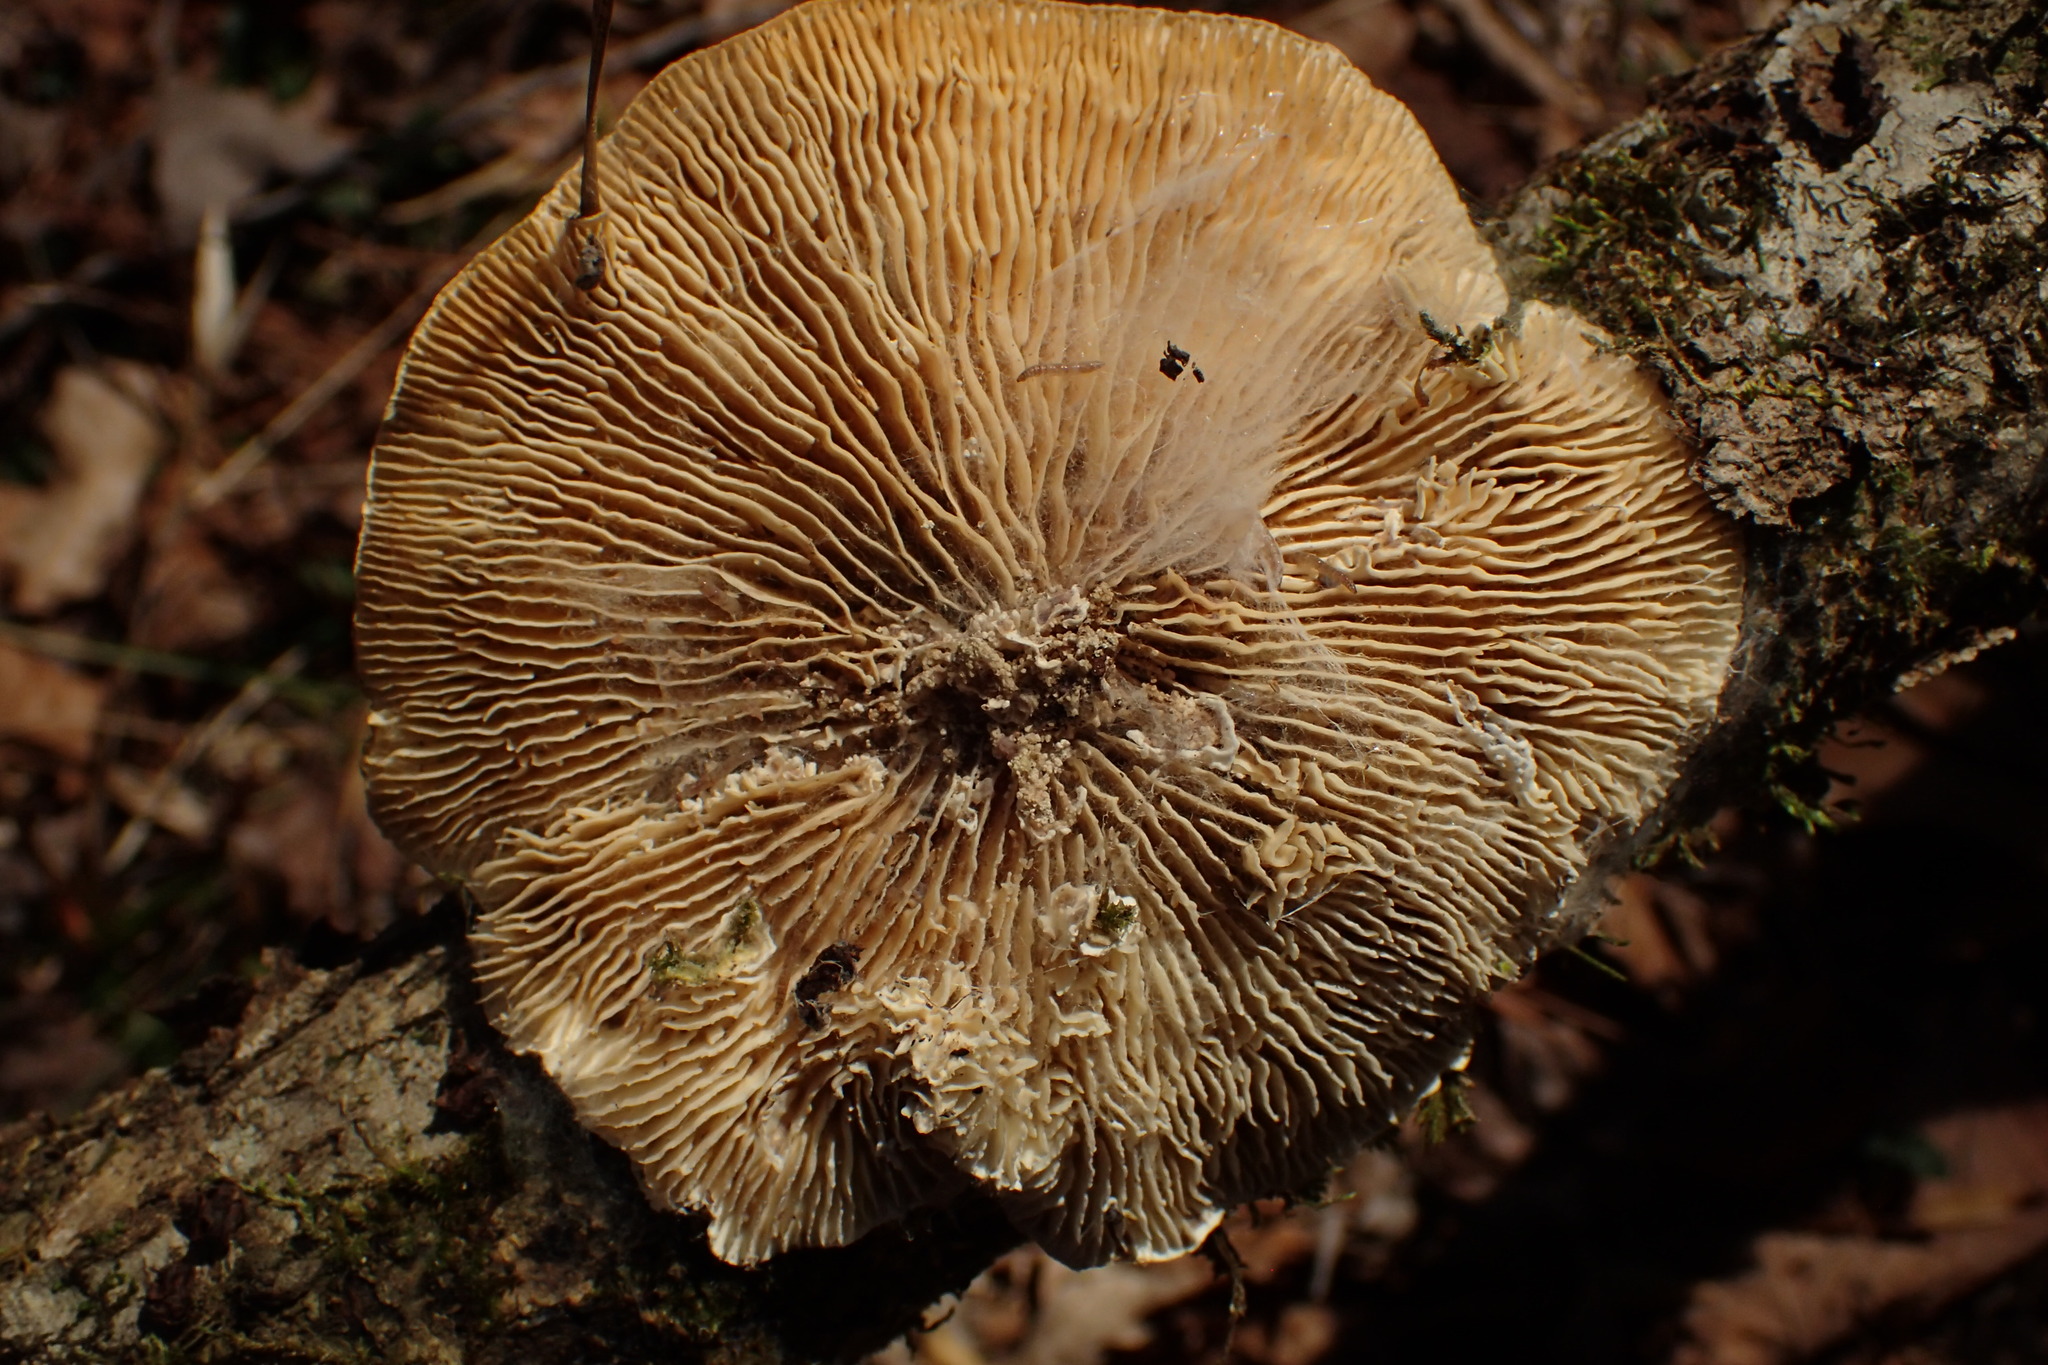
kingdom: Fungi
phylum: Basidiomycota
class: Agaricomycetes
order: Polyporales
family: Polyporaceae
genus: Lenzites
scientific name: Lenzites betulinus
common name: Birch mazegill
